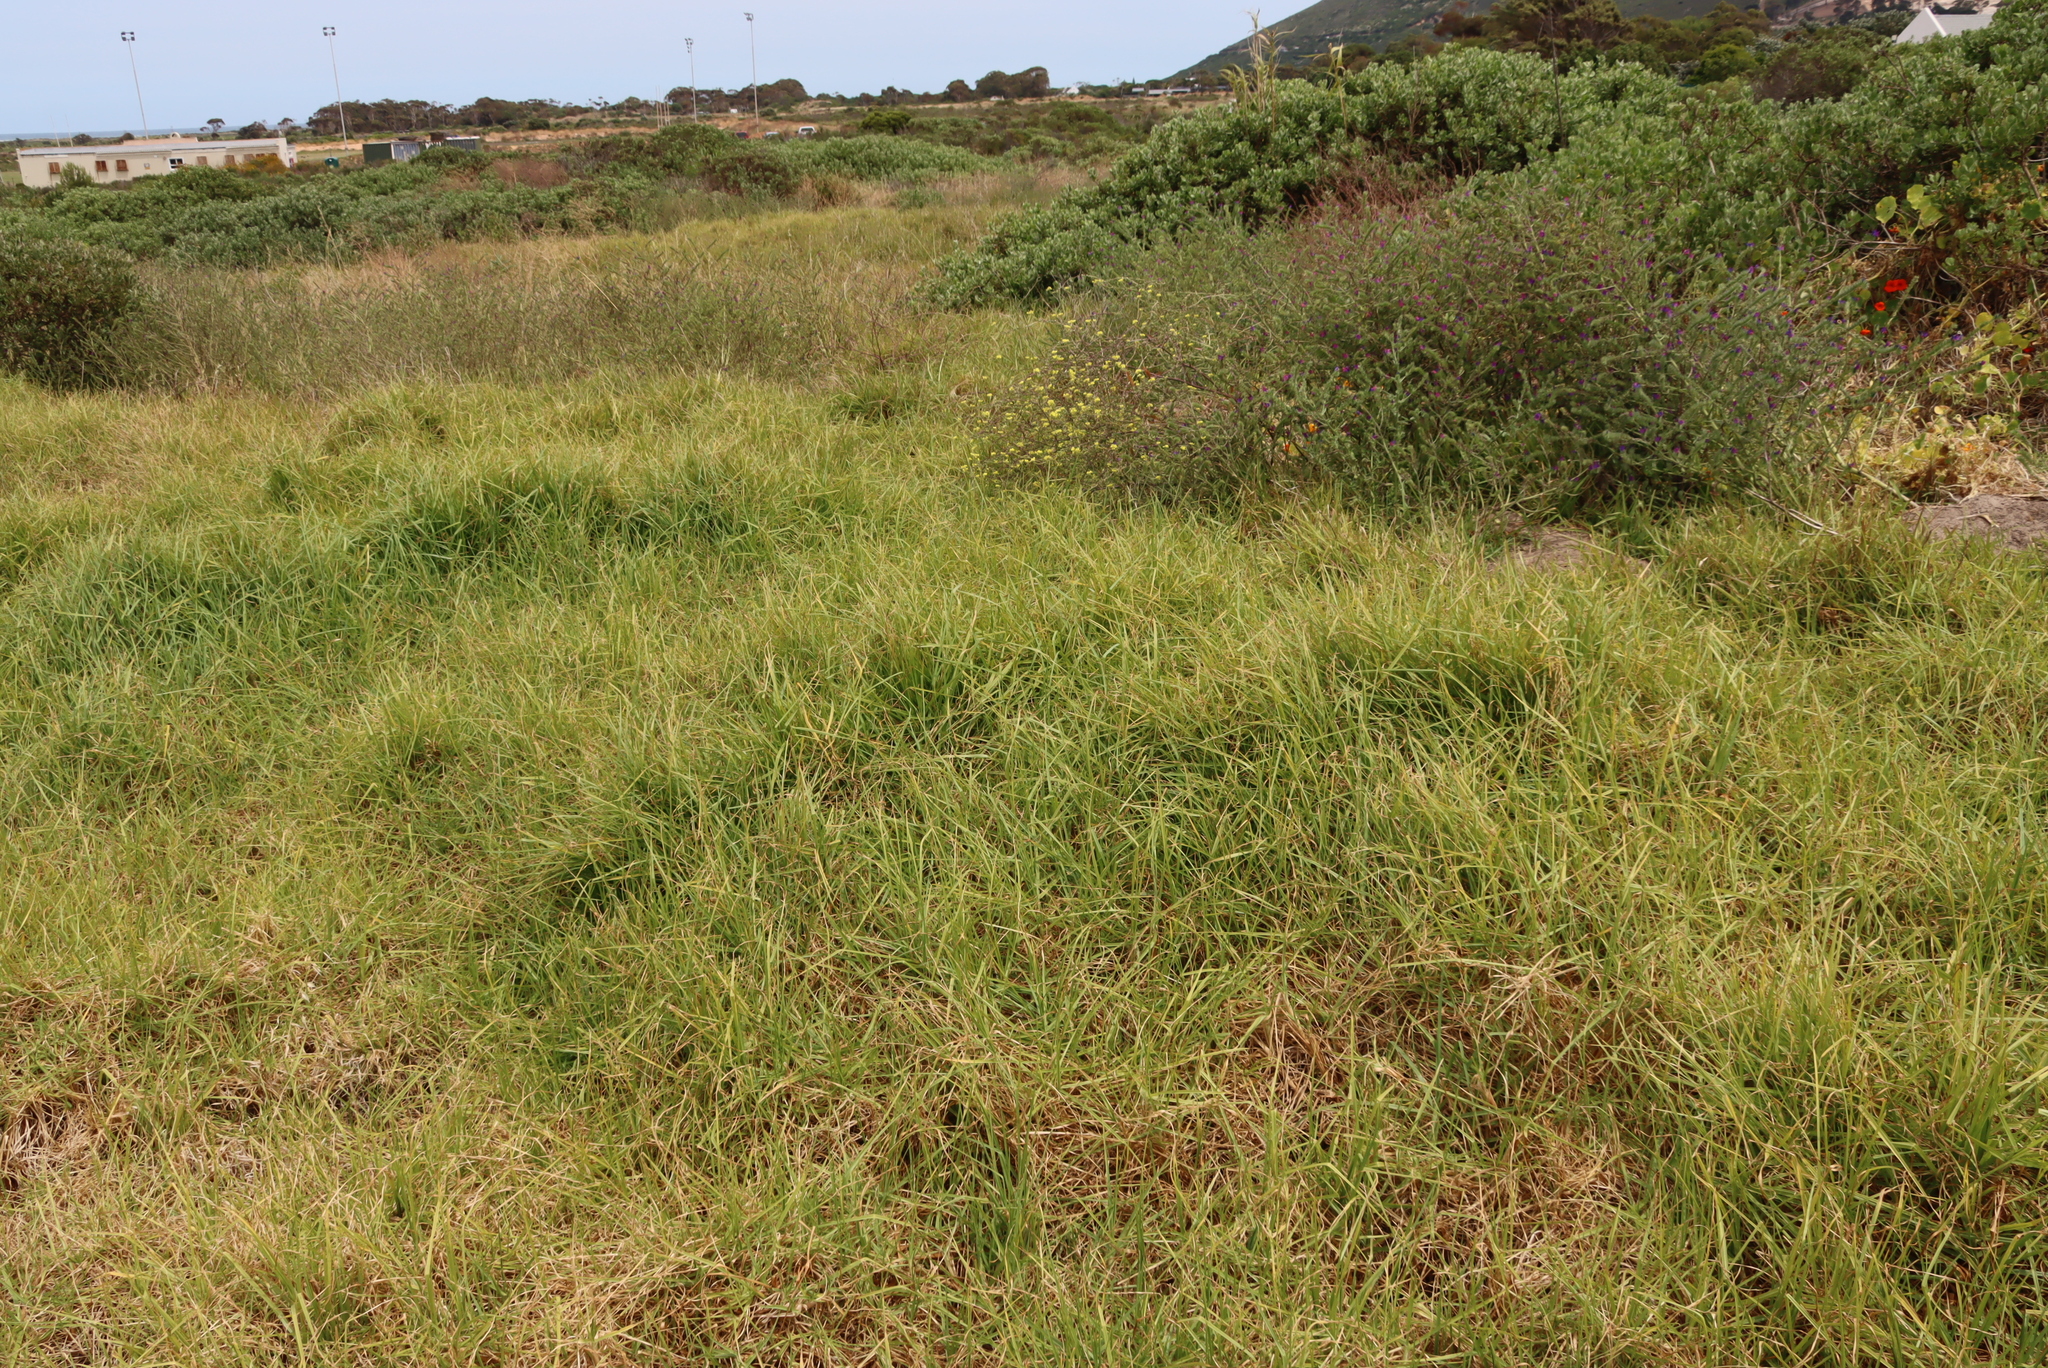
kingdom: Plantae
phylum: Tracheophyta
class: Liliopsida
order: Poales
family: Poaceae
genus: Cenchrus
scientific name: Cenchrus clandestinus
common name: Kikuyugrass
